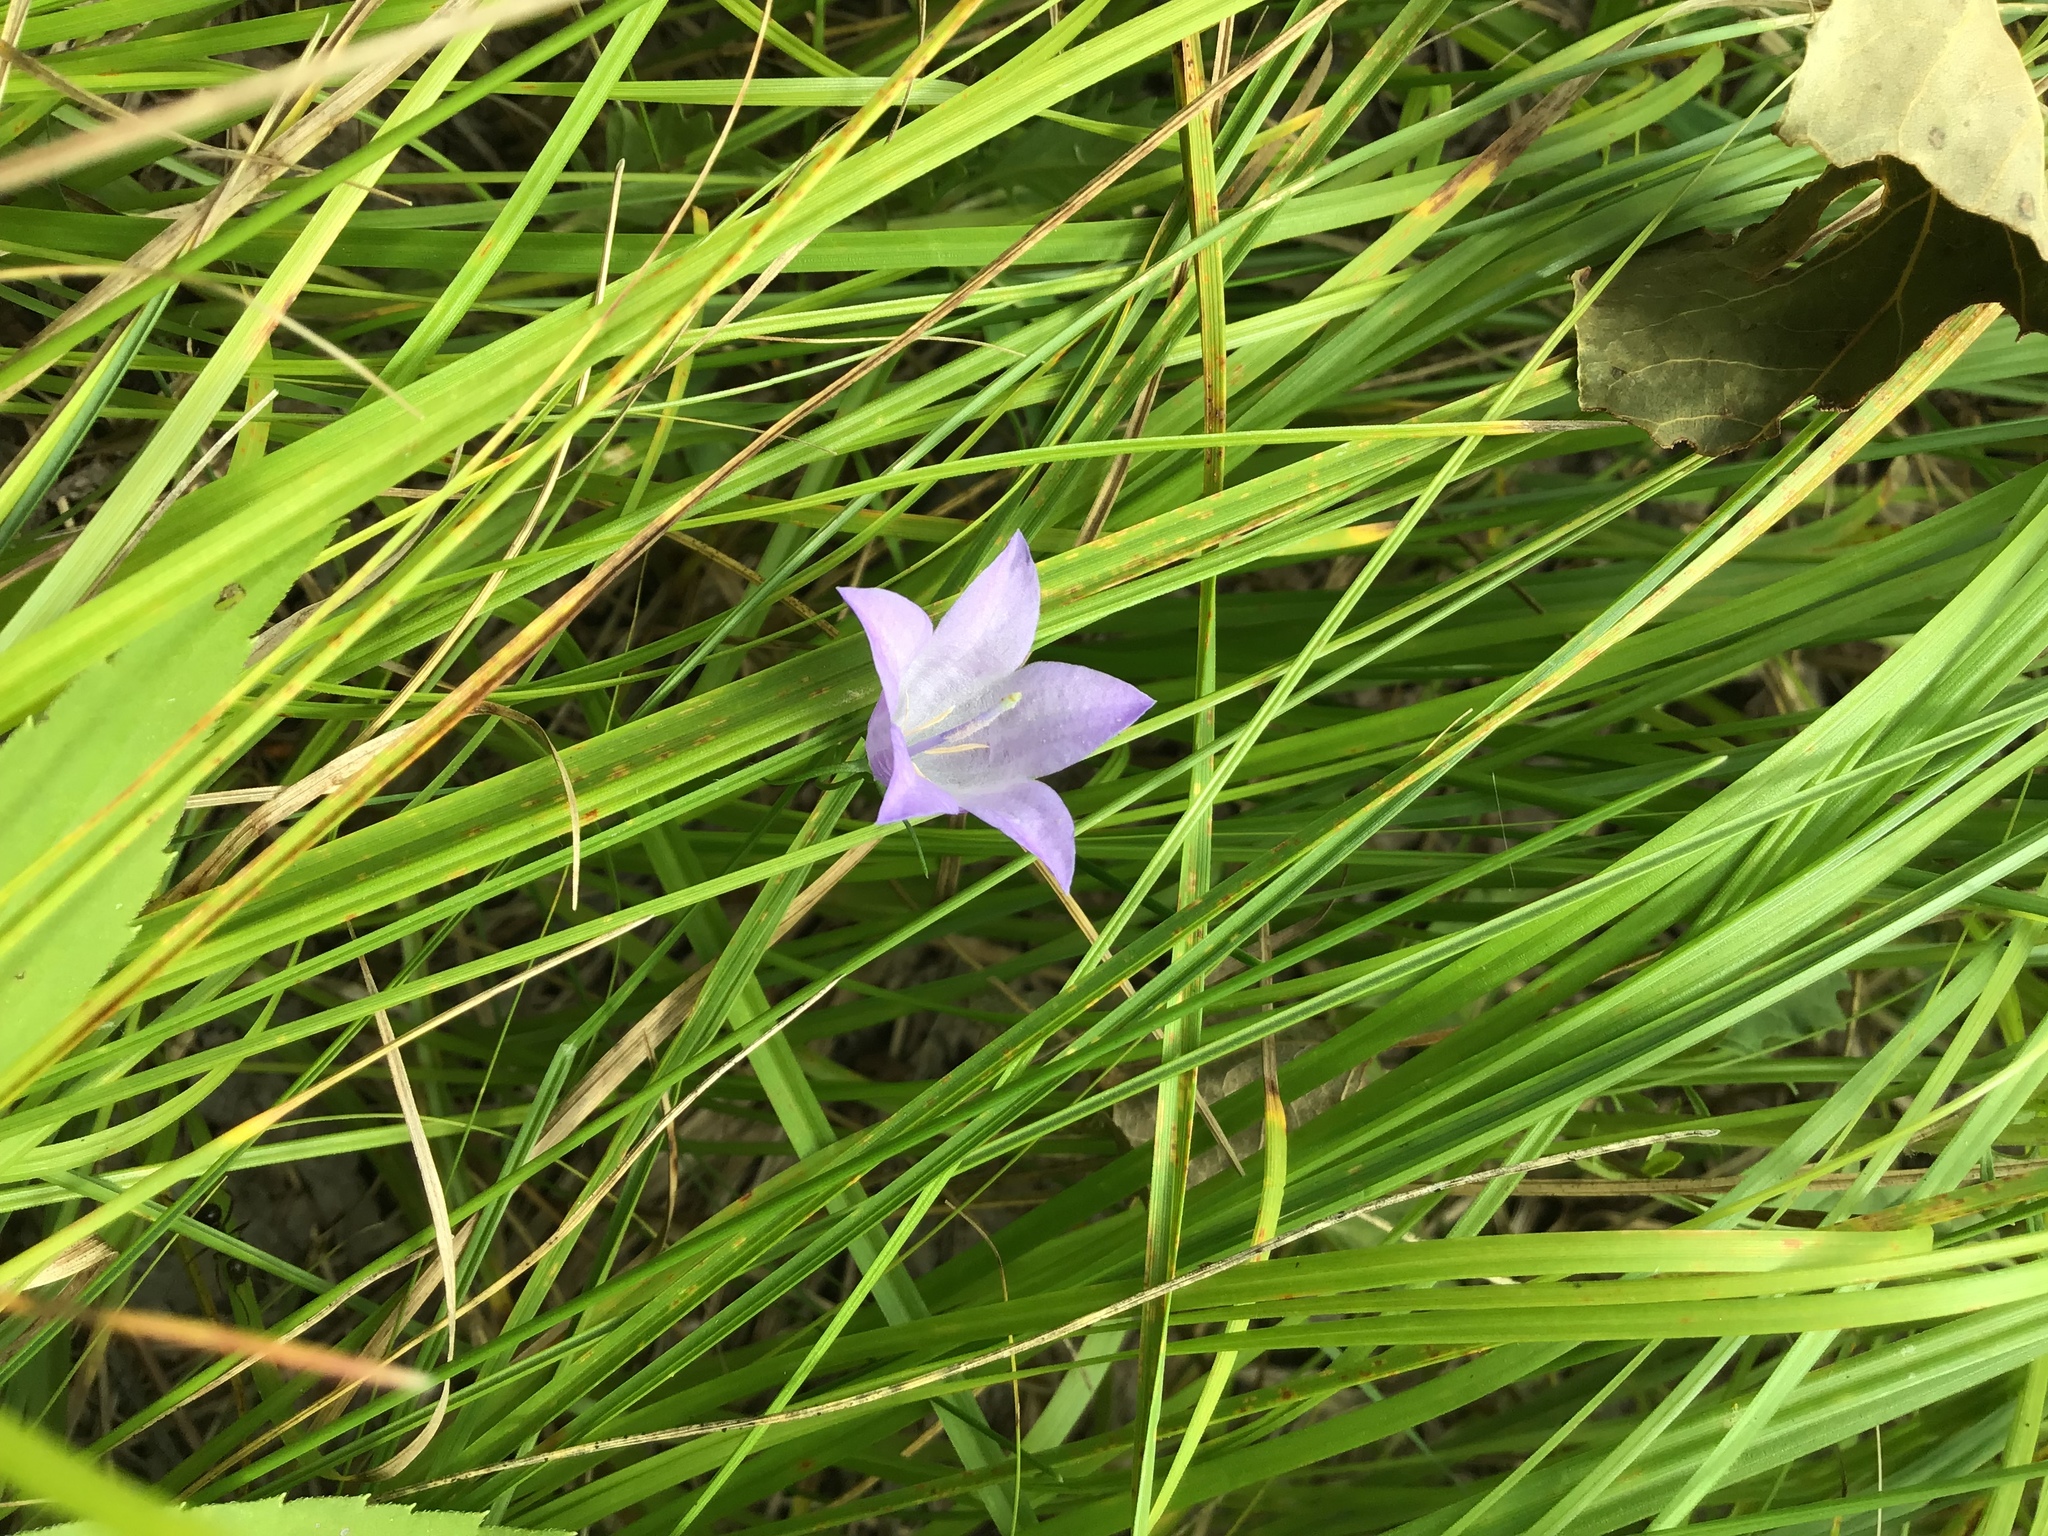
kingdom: Plantae
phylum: Tracheophyta
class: Magnoliopsida
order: Asterales
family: Campanulaceae
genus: Campanula
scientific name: Campanula intercedens
